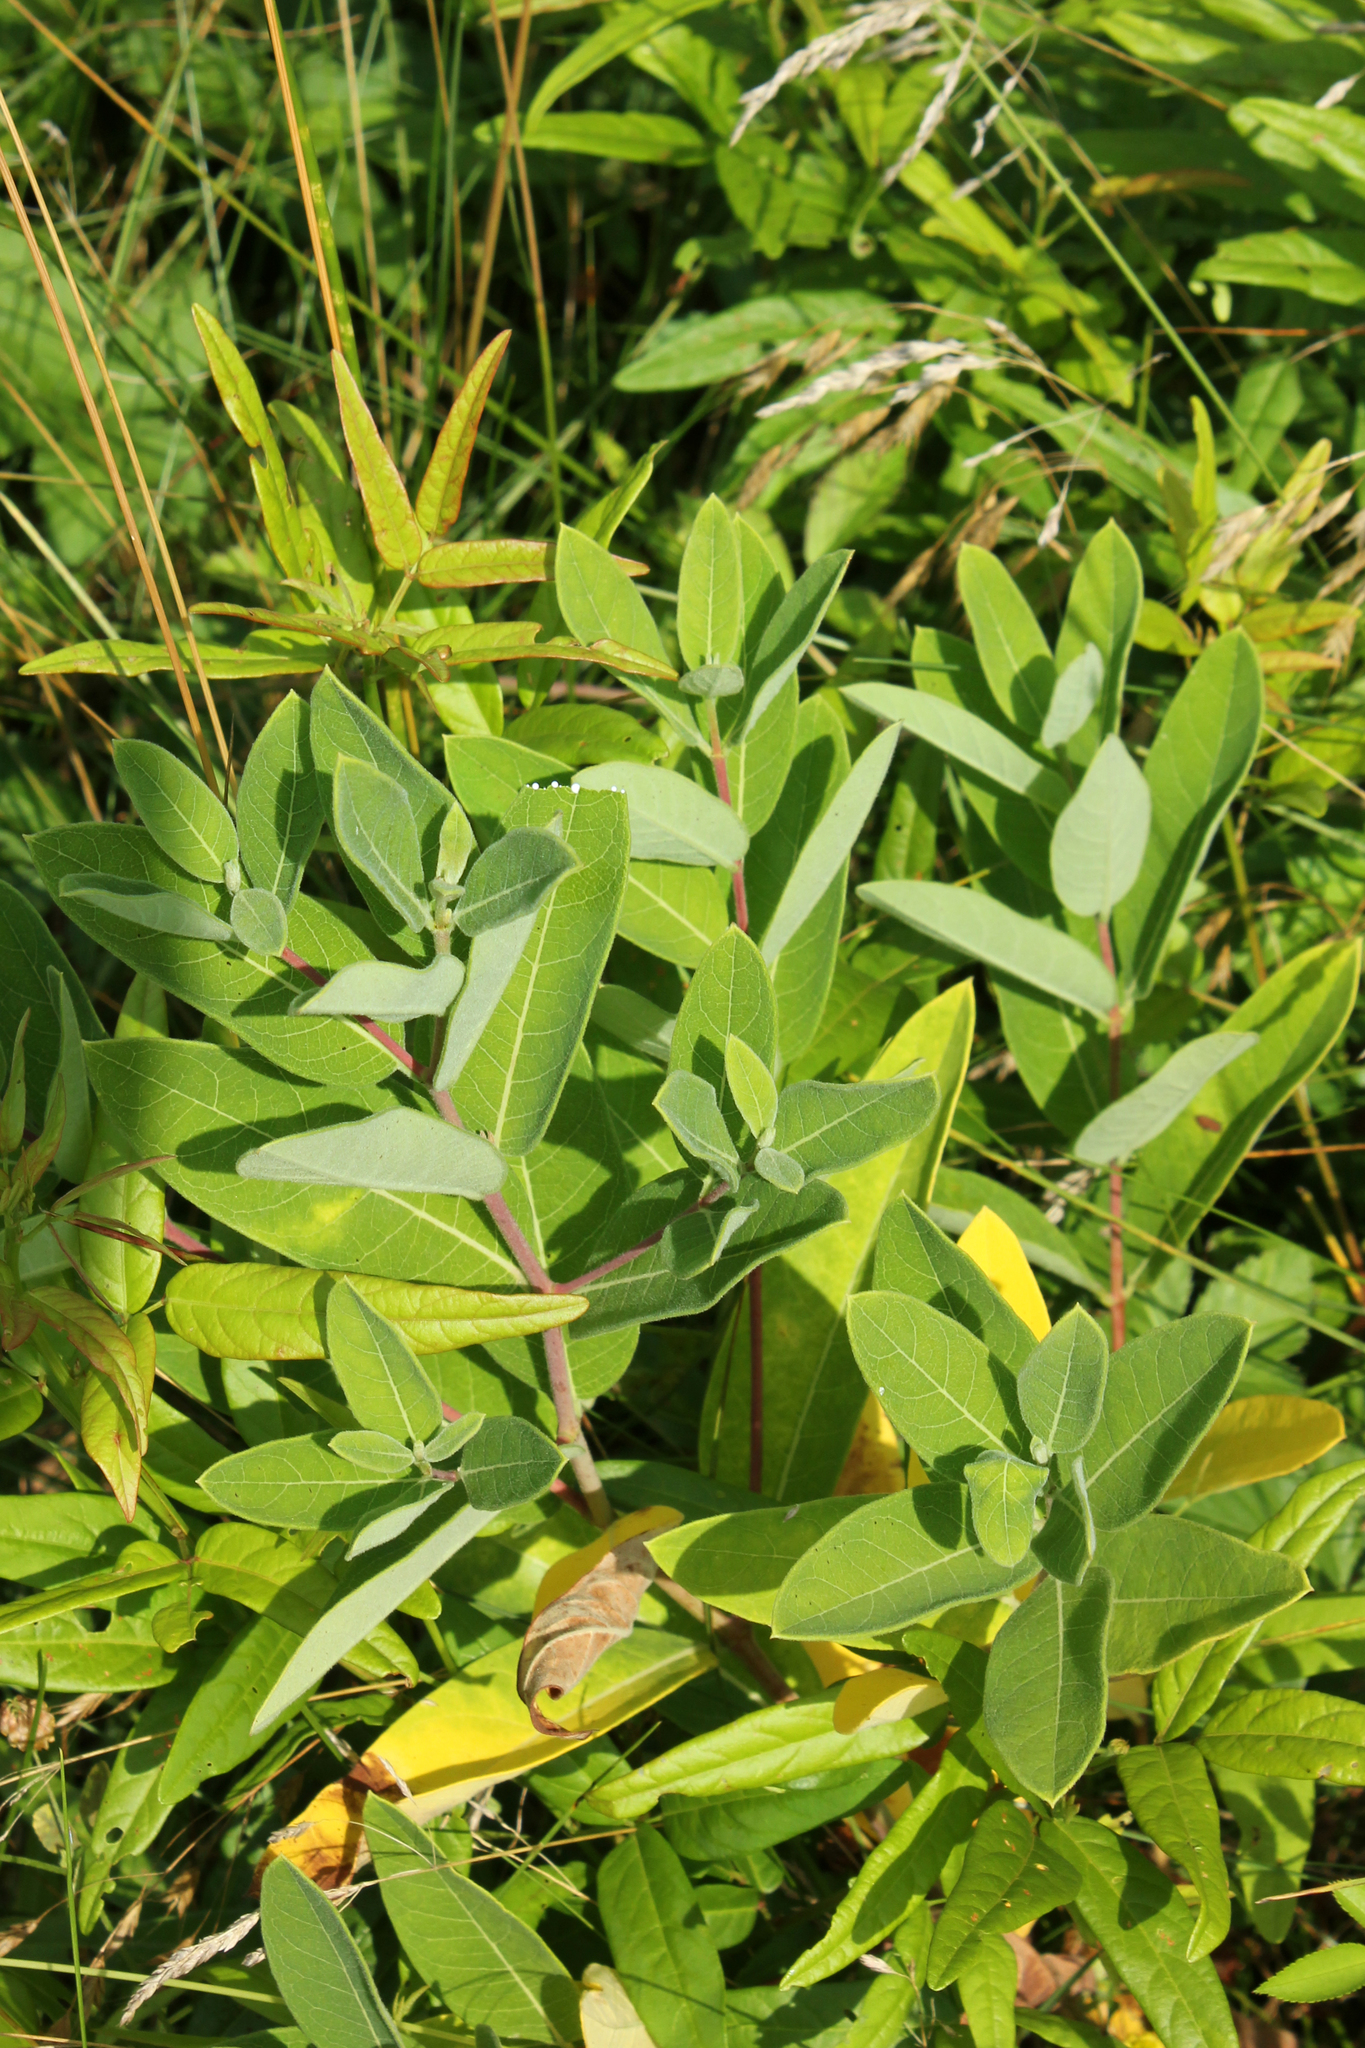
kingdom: Plantae
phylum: Tracheophyta
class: Magnoliopsida
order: Gentianales
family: Apocynaceae
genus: Apocynum
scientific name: Apocynum cannabinum
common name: Hemp dogbane
